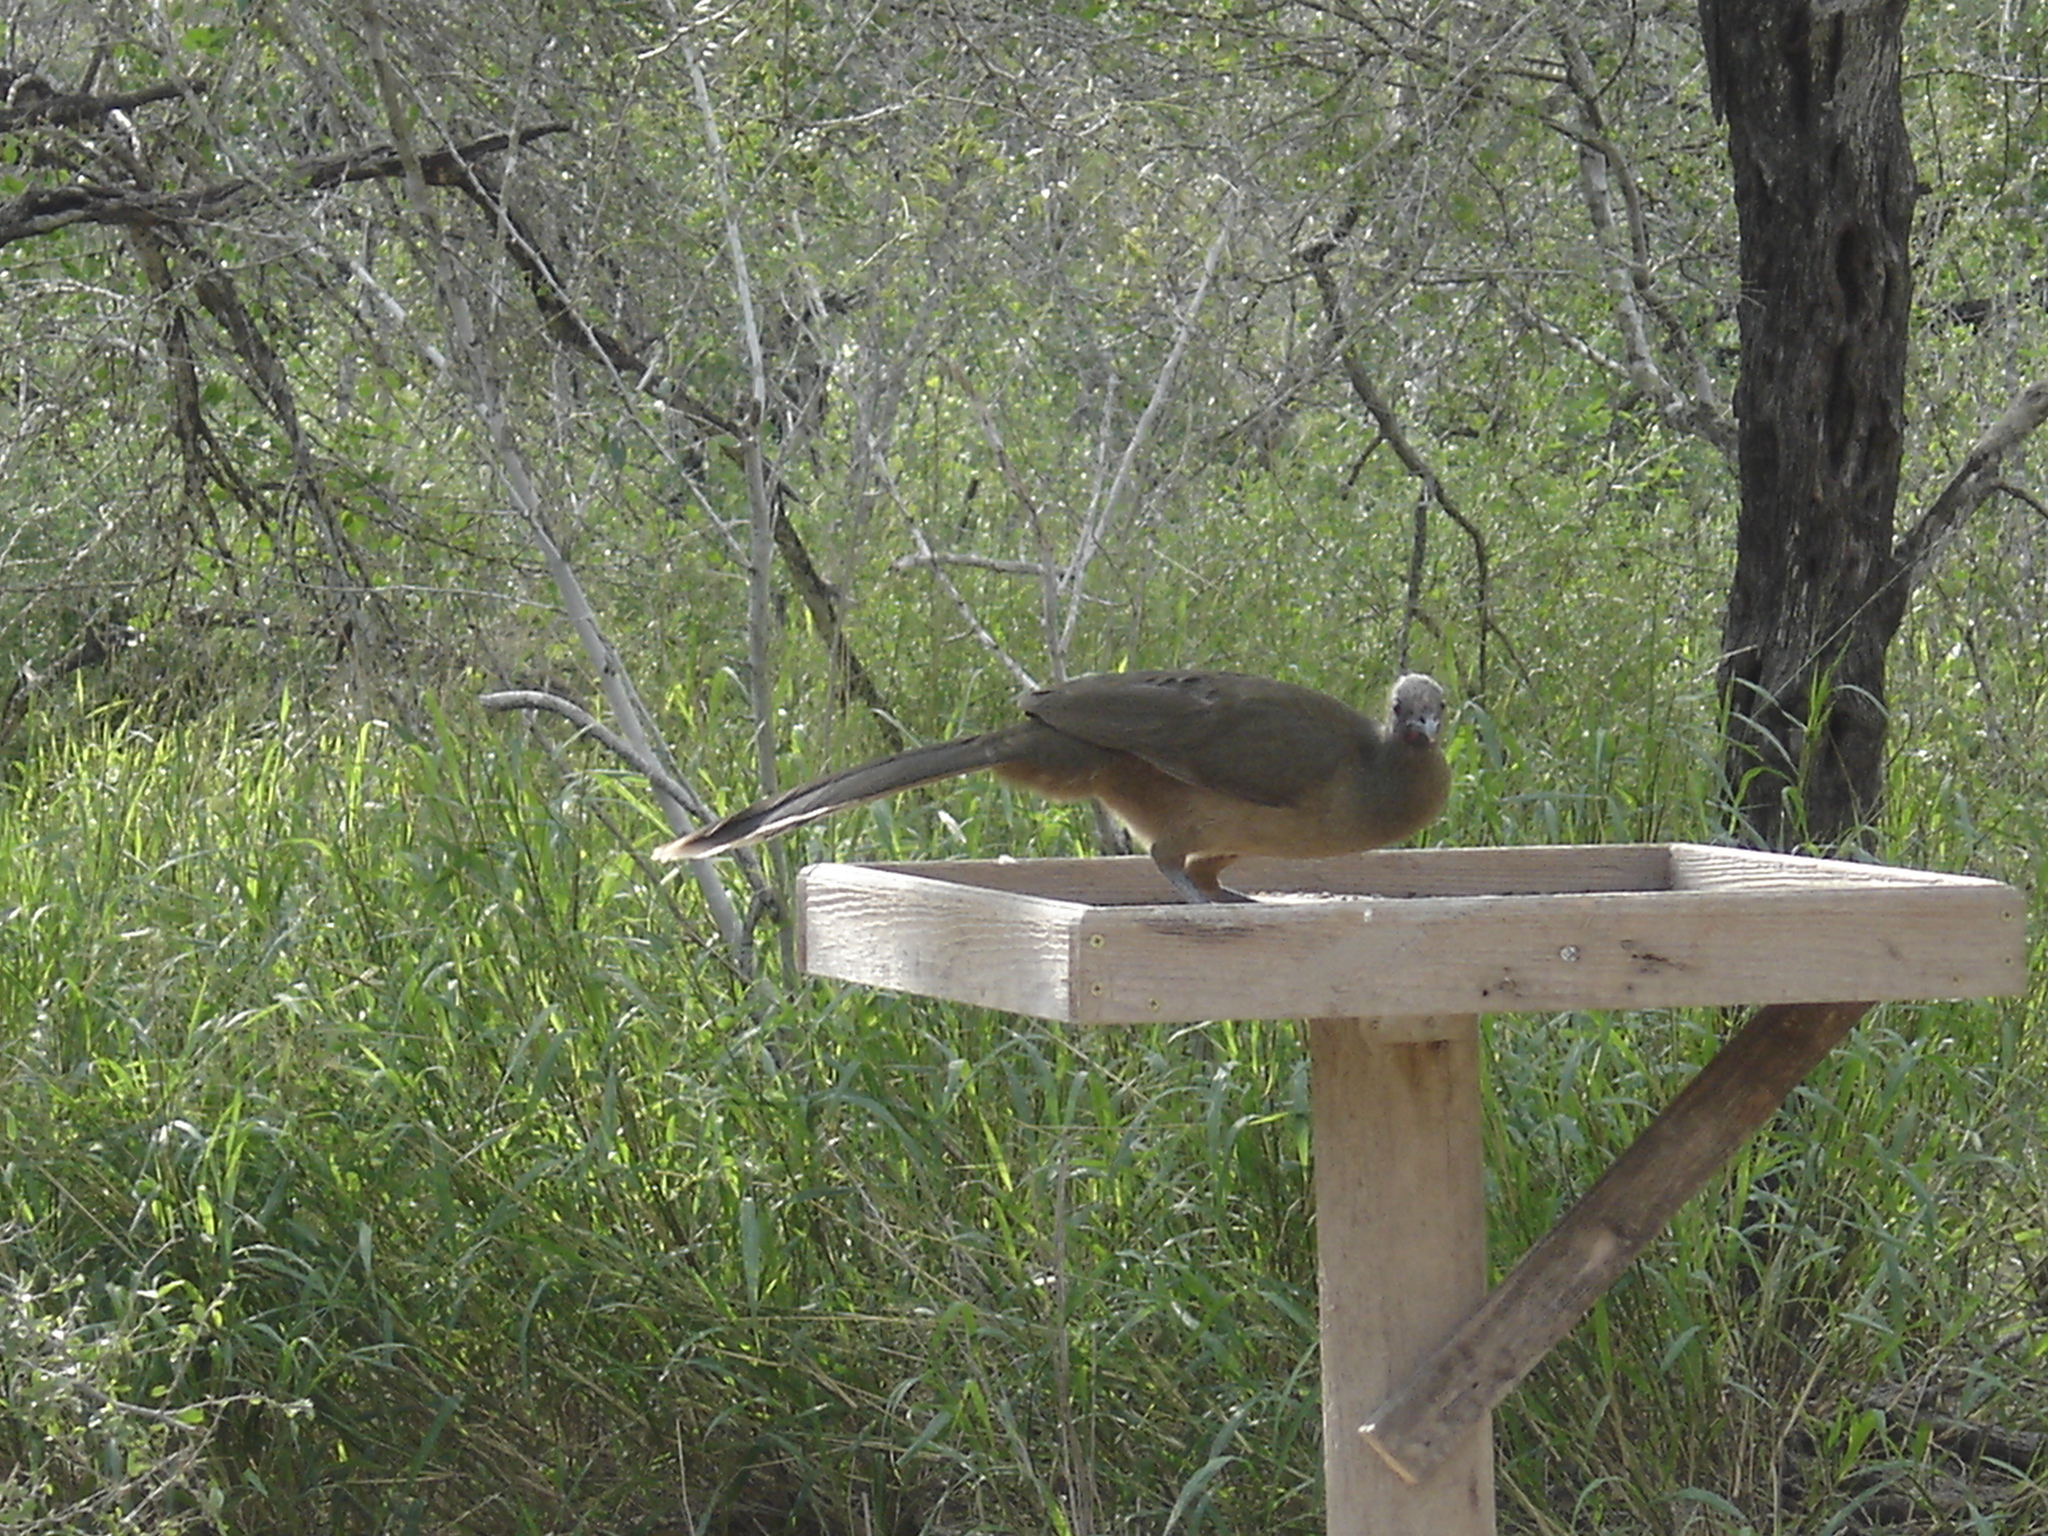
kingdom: Animalia
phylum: Chordata
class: Aves
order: Galliformes
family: Cracidae
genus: Ortalis
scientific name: Ortalis vetula
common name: Plain chachalaca
